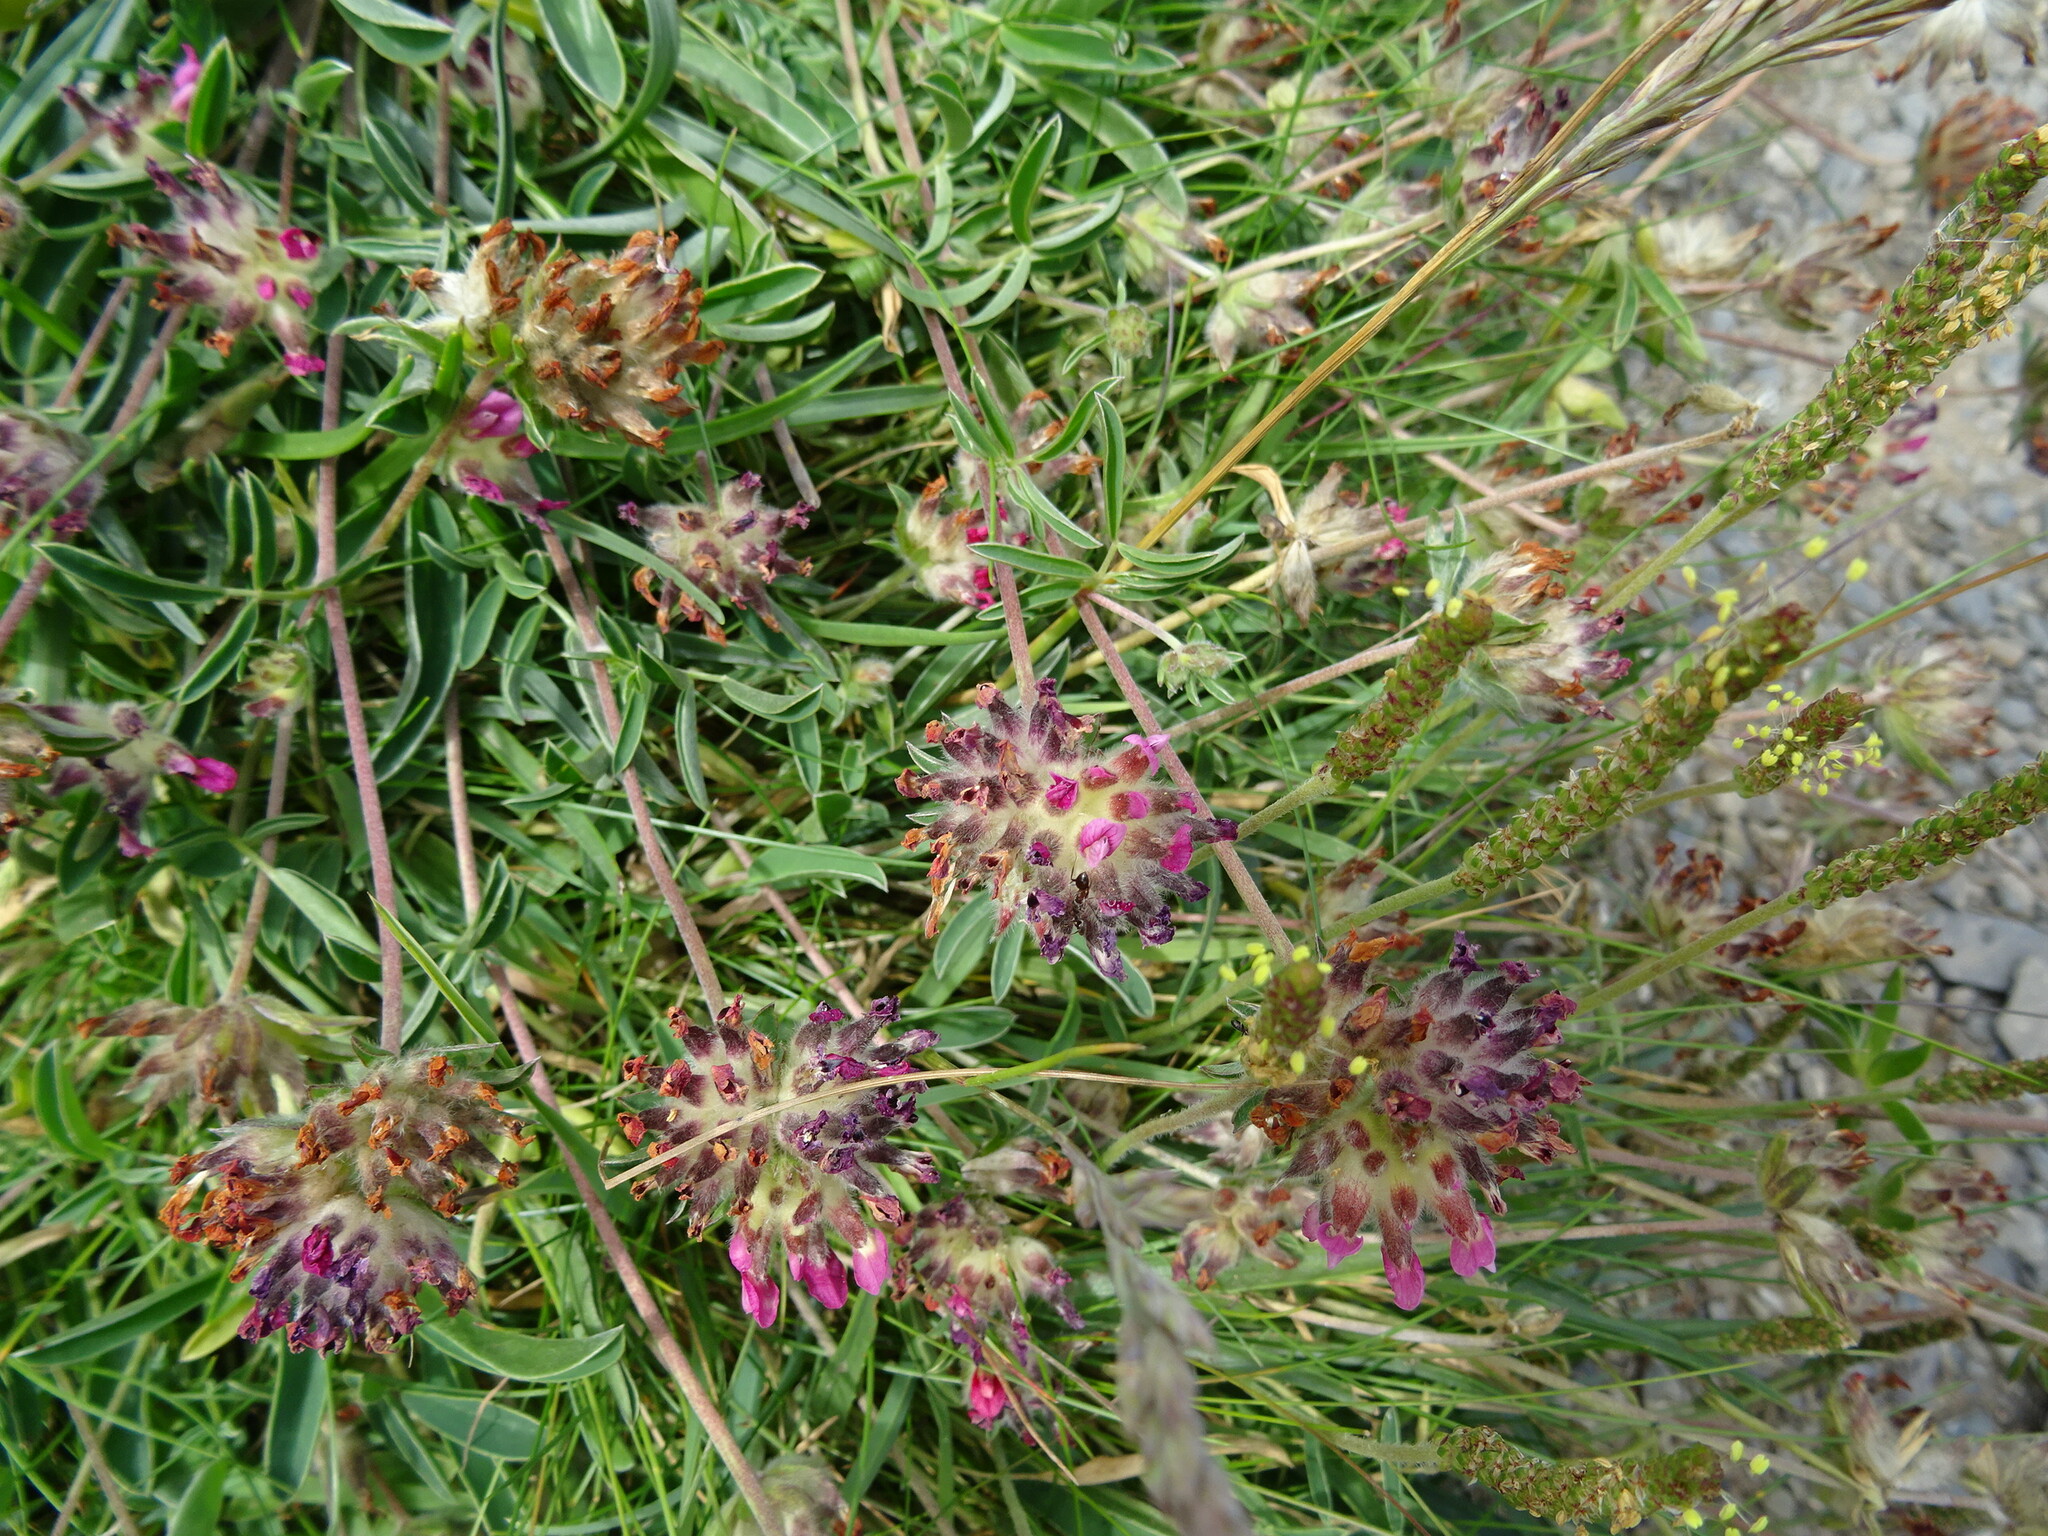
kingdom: Plantae
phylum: Tracheophyta
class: Magnoliopsida
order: Fabales
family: Fabaceae
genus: Anthyllis
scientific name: Anthyllis vulneraria
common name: Kidney vetch
